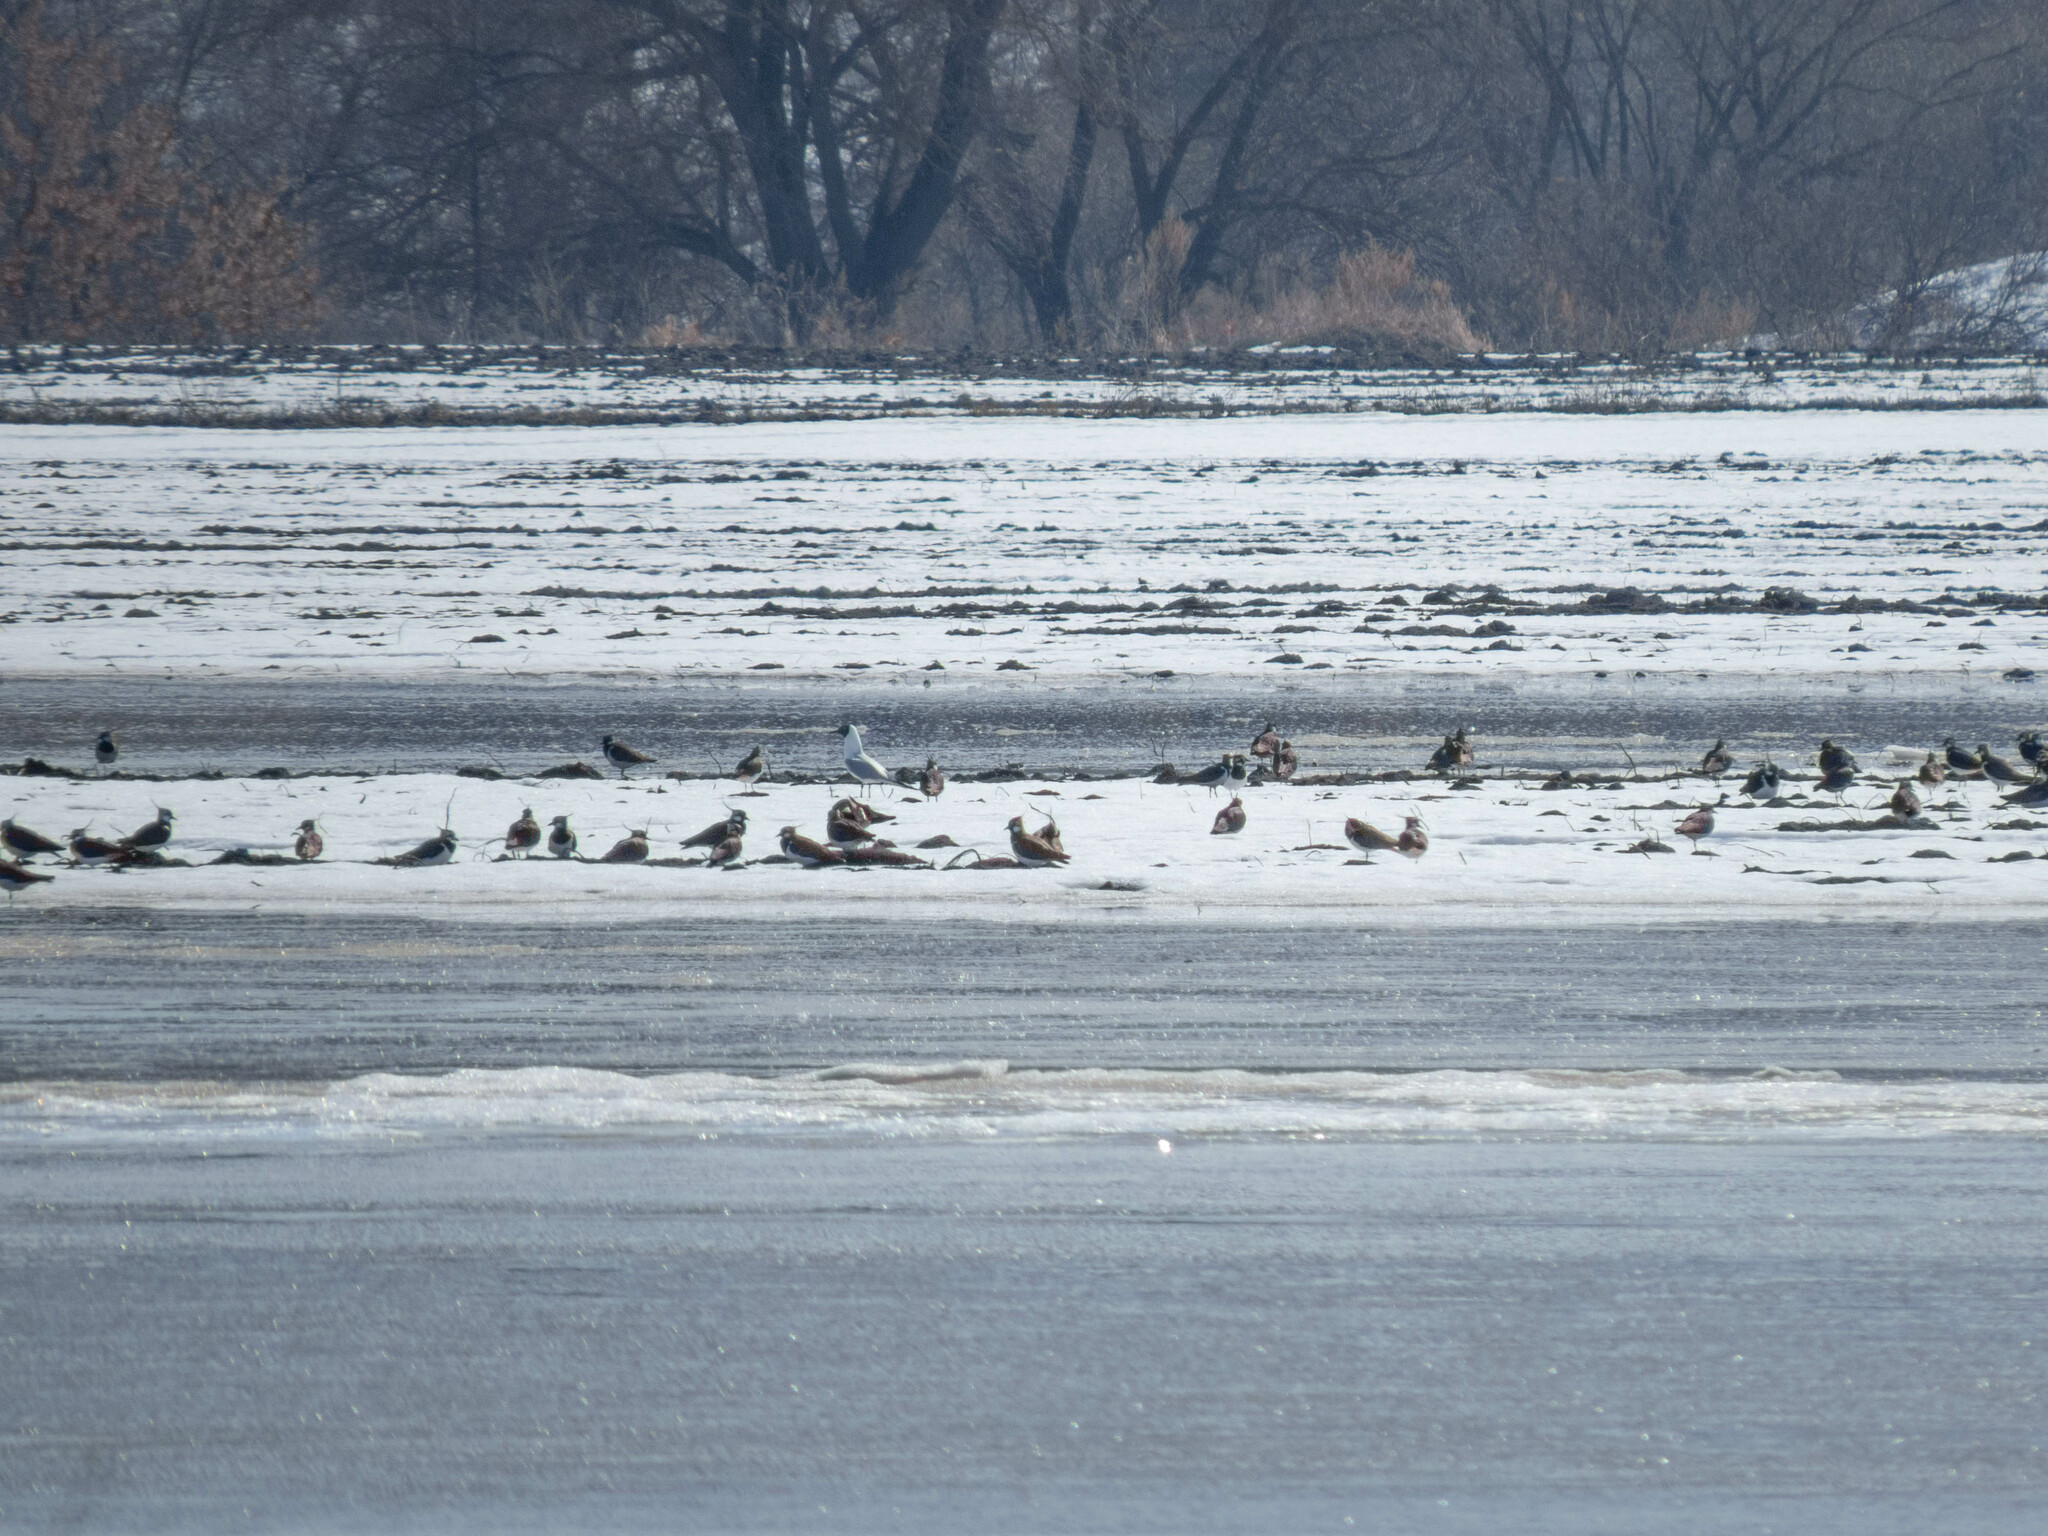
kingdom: Animalia
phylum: Chordata
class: Aves
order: Charadriiformes
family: Charadriidae
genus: Vanellus
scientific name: Vanellus vanellus
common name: Northern lapwing
